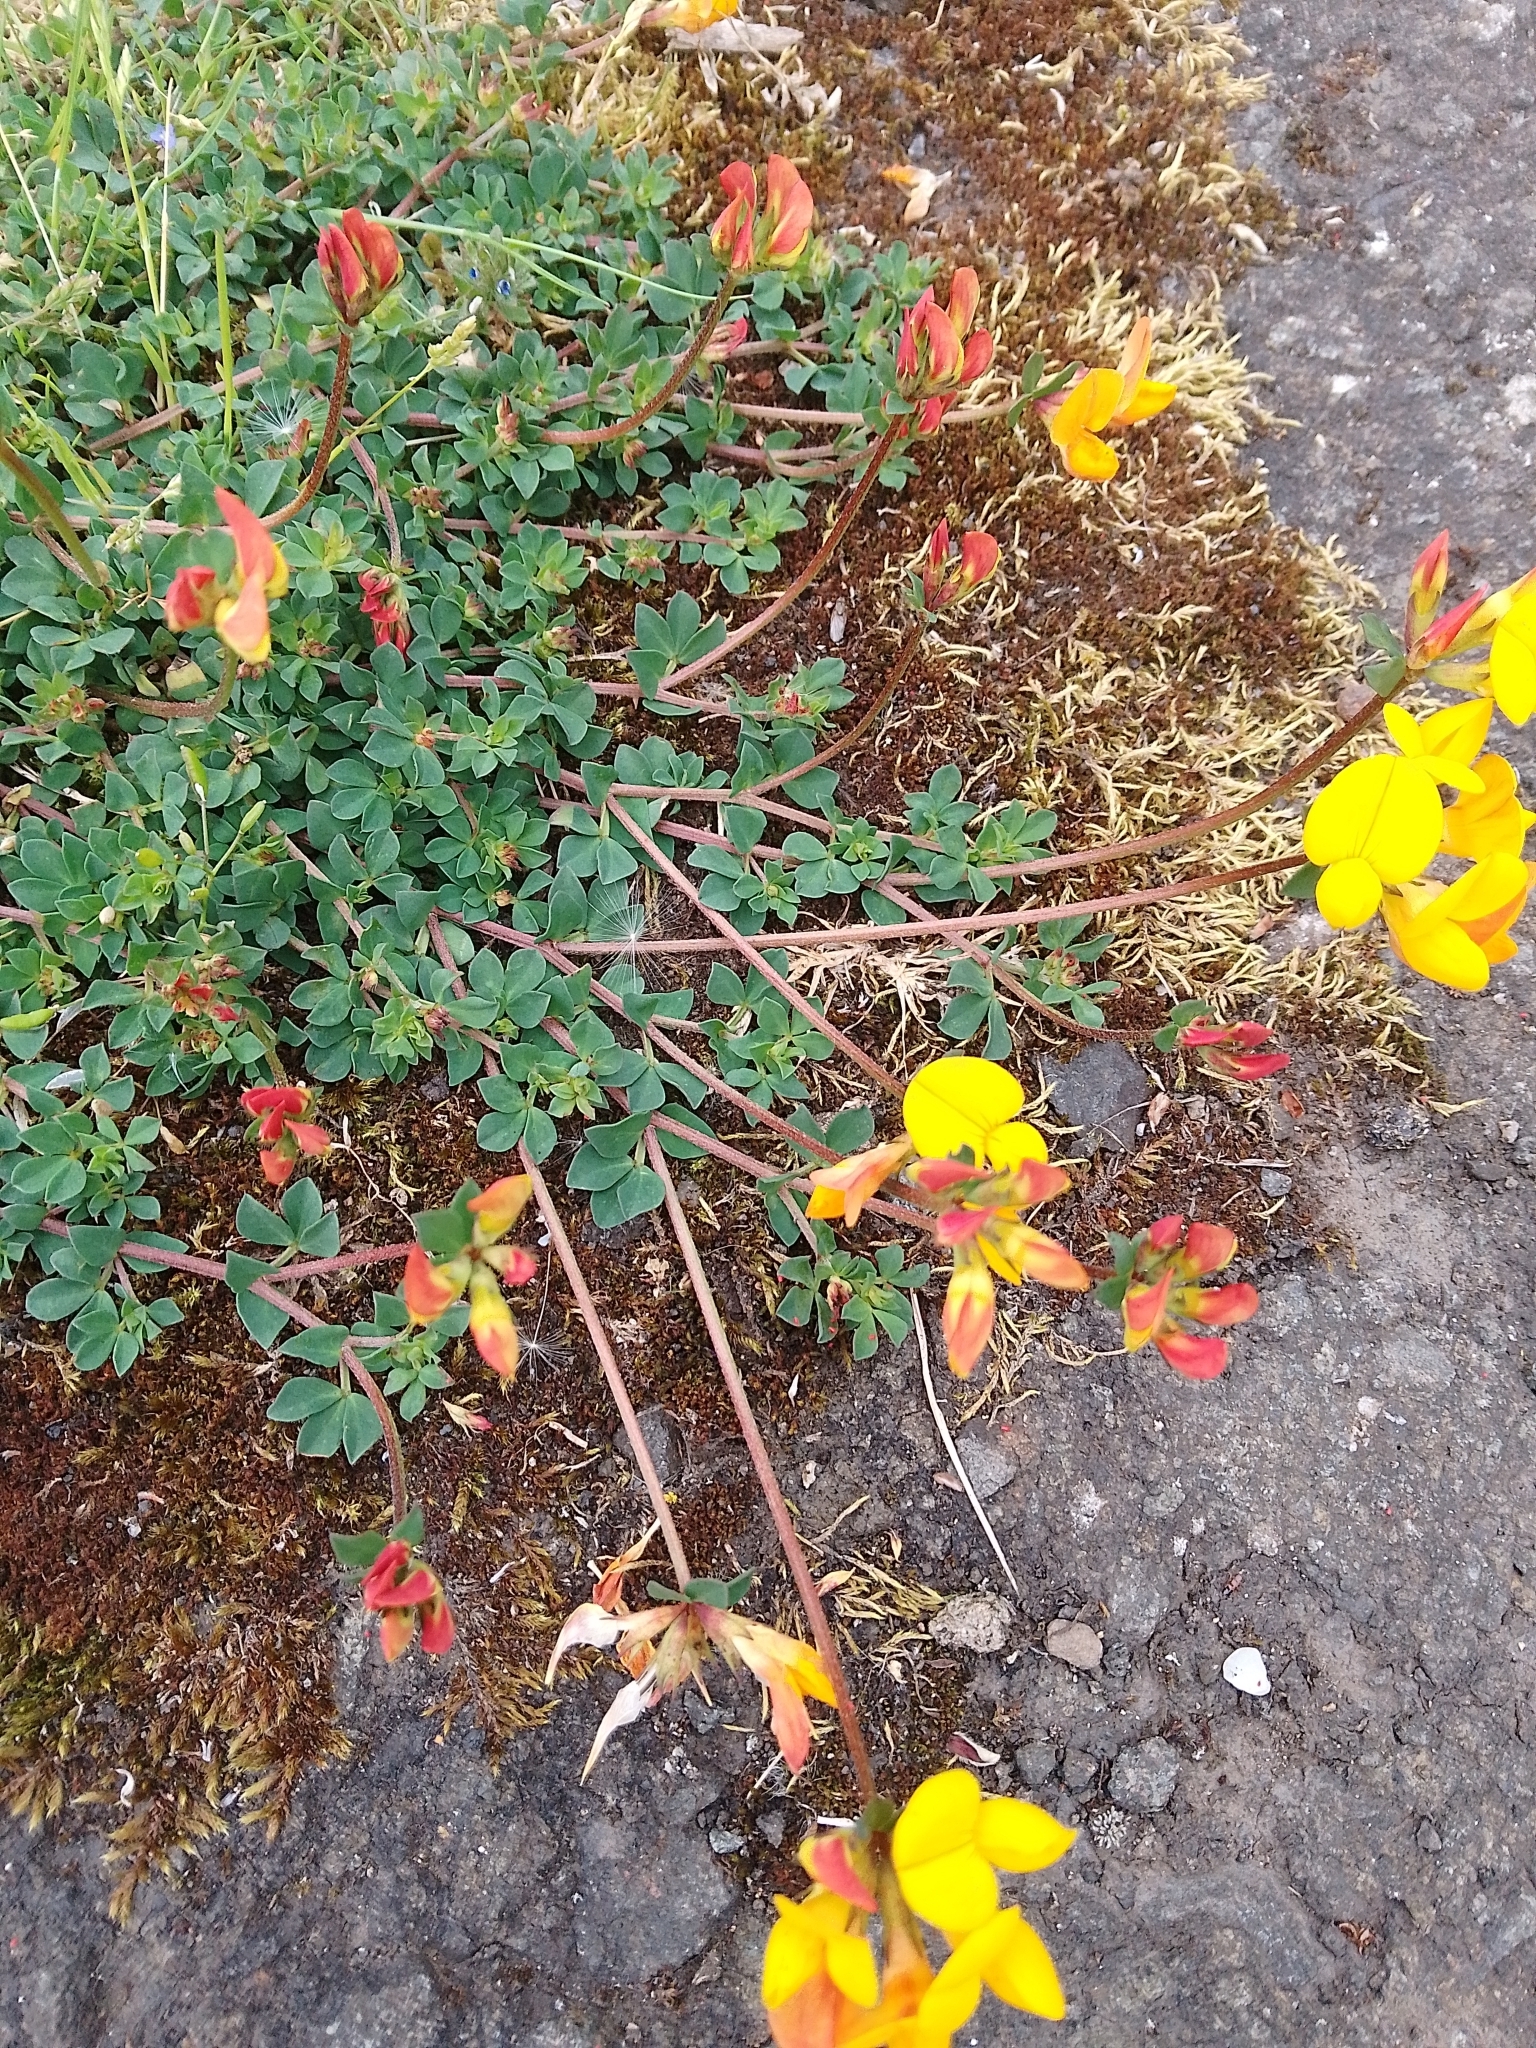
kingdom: Plantae
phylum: Tracheophyta
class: Magnoliopsida
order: Fabales
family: Fabaceae
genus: Lotus
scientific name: Lotus corniculatus
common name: Common bird's-foot-trefoil
